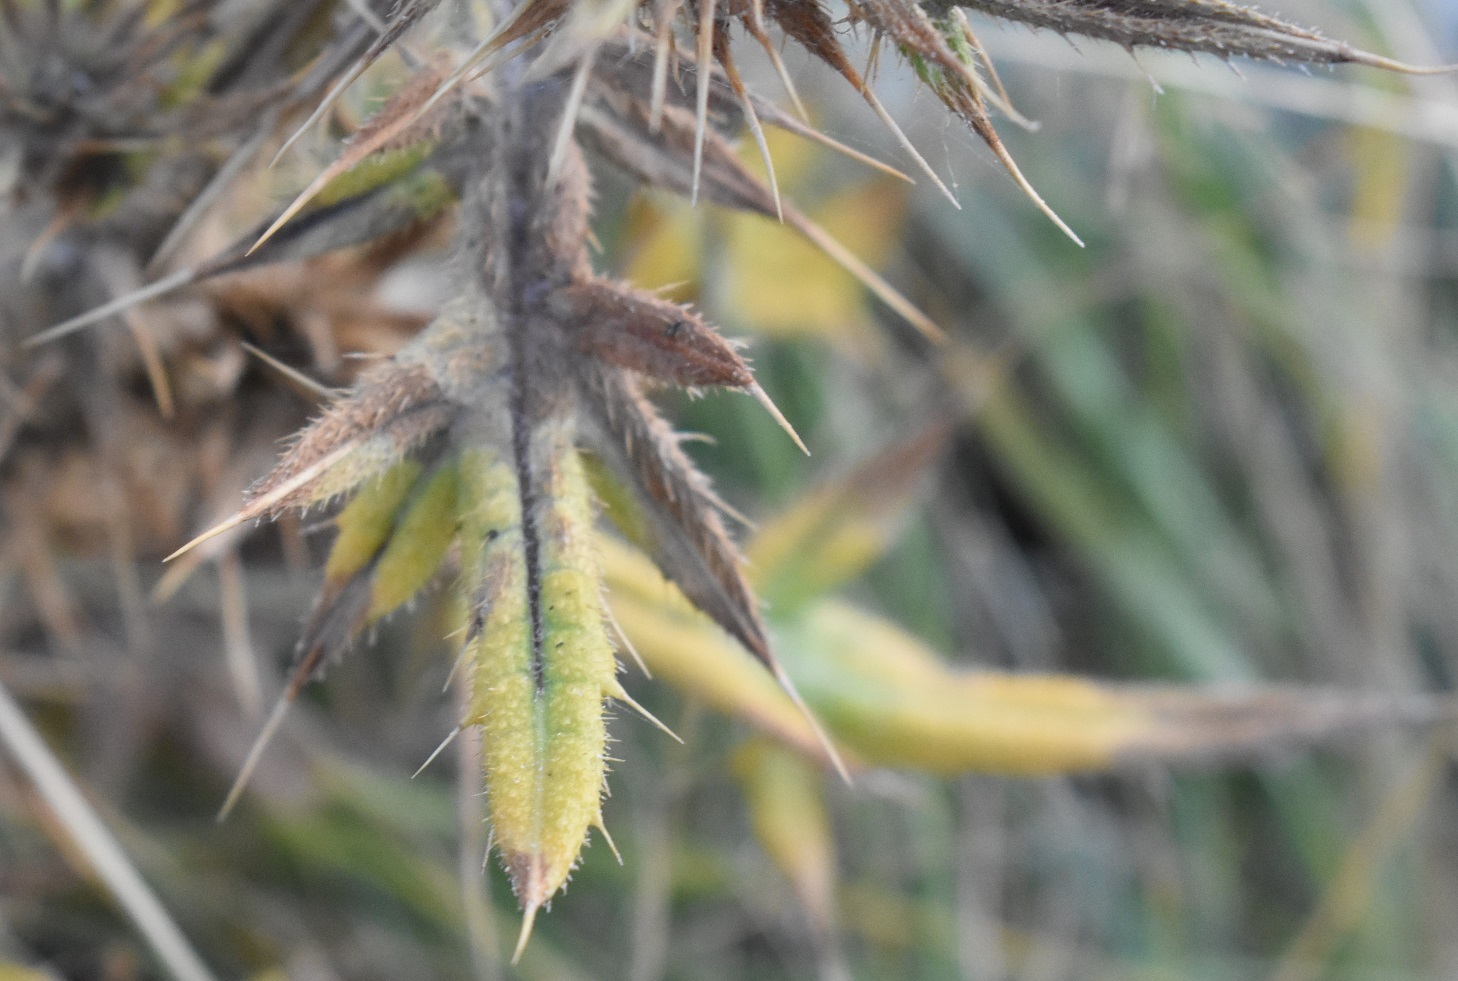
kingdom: Plantae
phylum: Tracheophyta
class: Magnoliopsida
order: Asterales
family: Asteraceae
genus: Cirsium
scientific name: Cirsium vulgare
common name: Bull thistle
